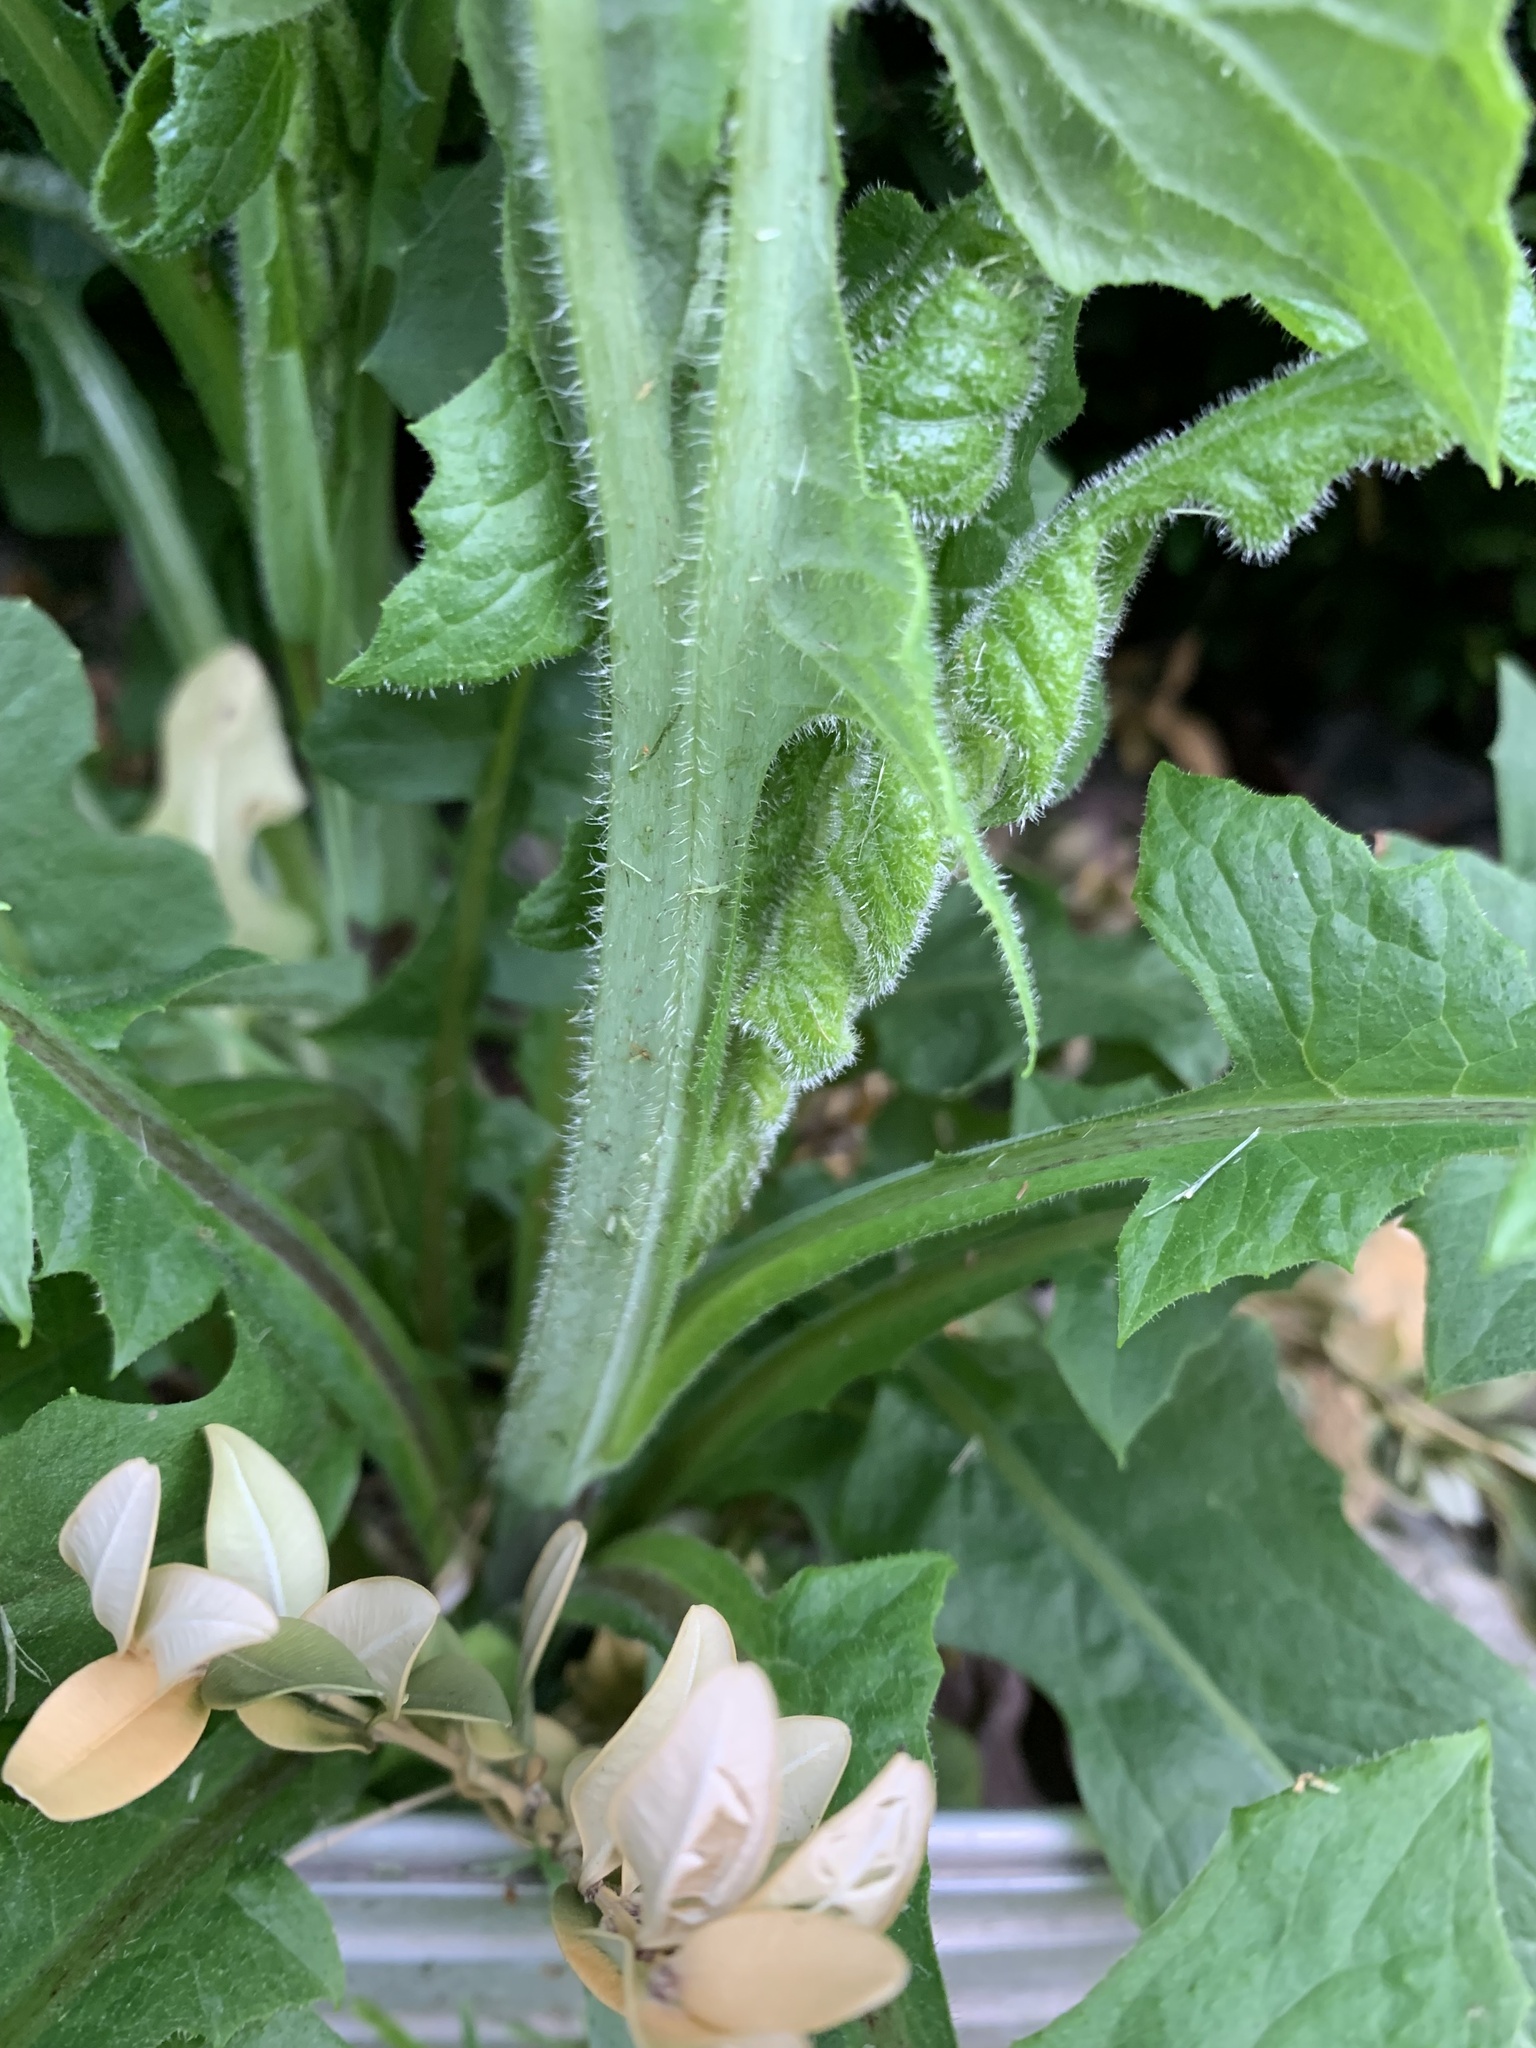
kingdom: Plantae
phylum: Tracheophyta
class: Magnoliopsida
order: Asterales
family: Asteraceae
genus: Lactuca
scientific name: Lactuca biennis
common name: Blue wood lettuce
